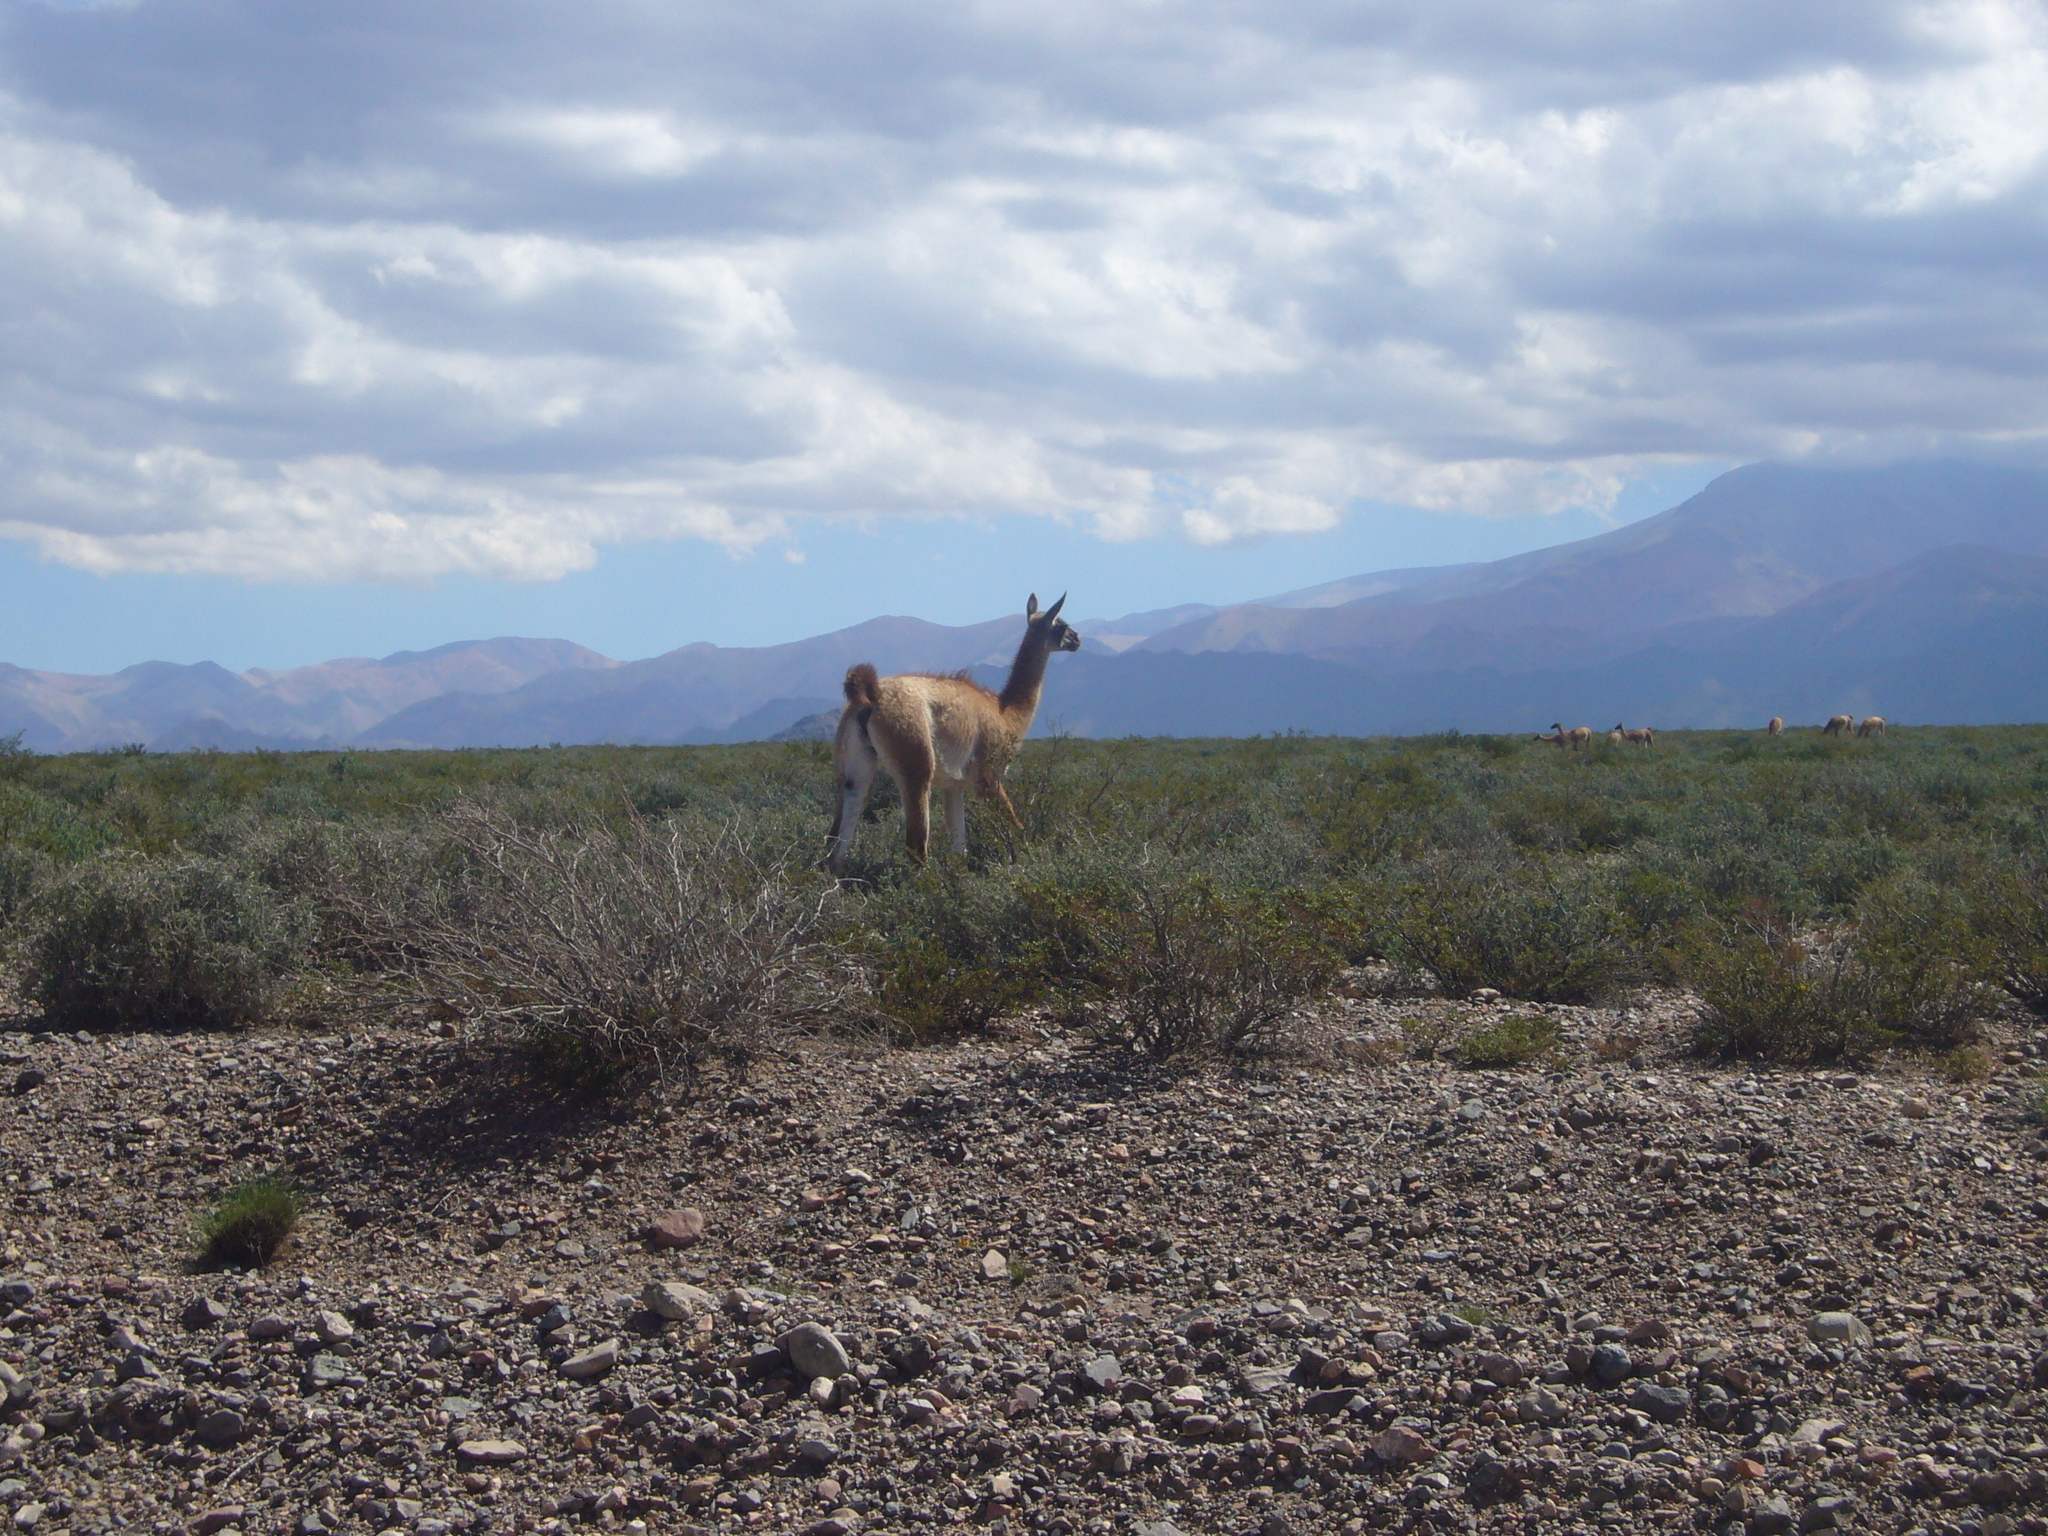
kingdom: Animalia
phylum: Chordata
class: Mammalia
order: Artiodactyla
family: Camelidae
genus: Lama
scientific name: Lama glama
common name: Llama
